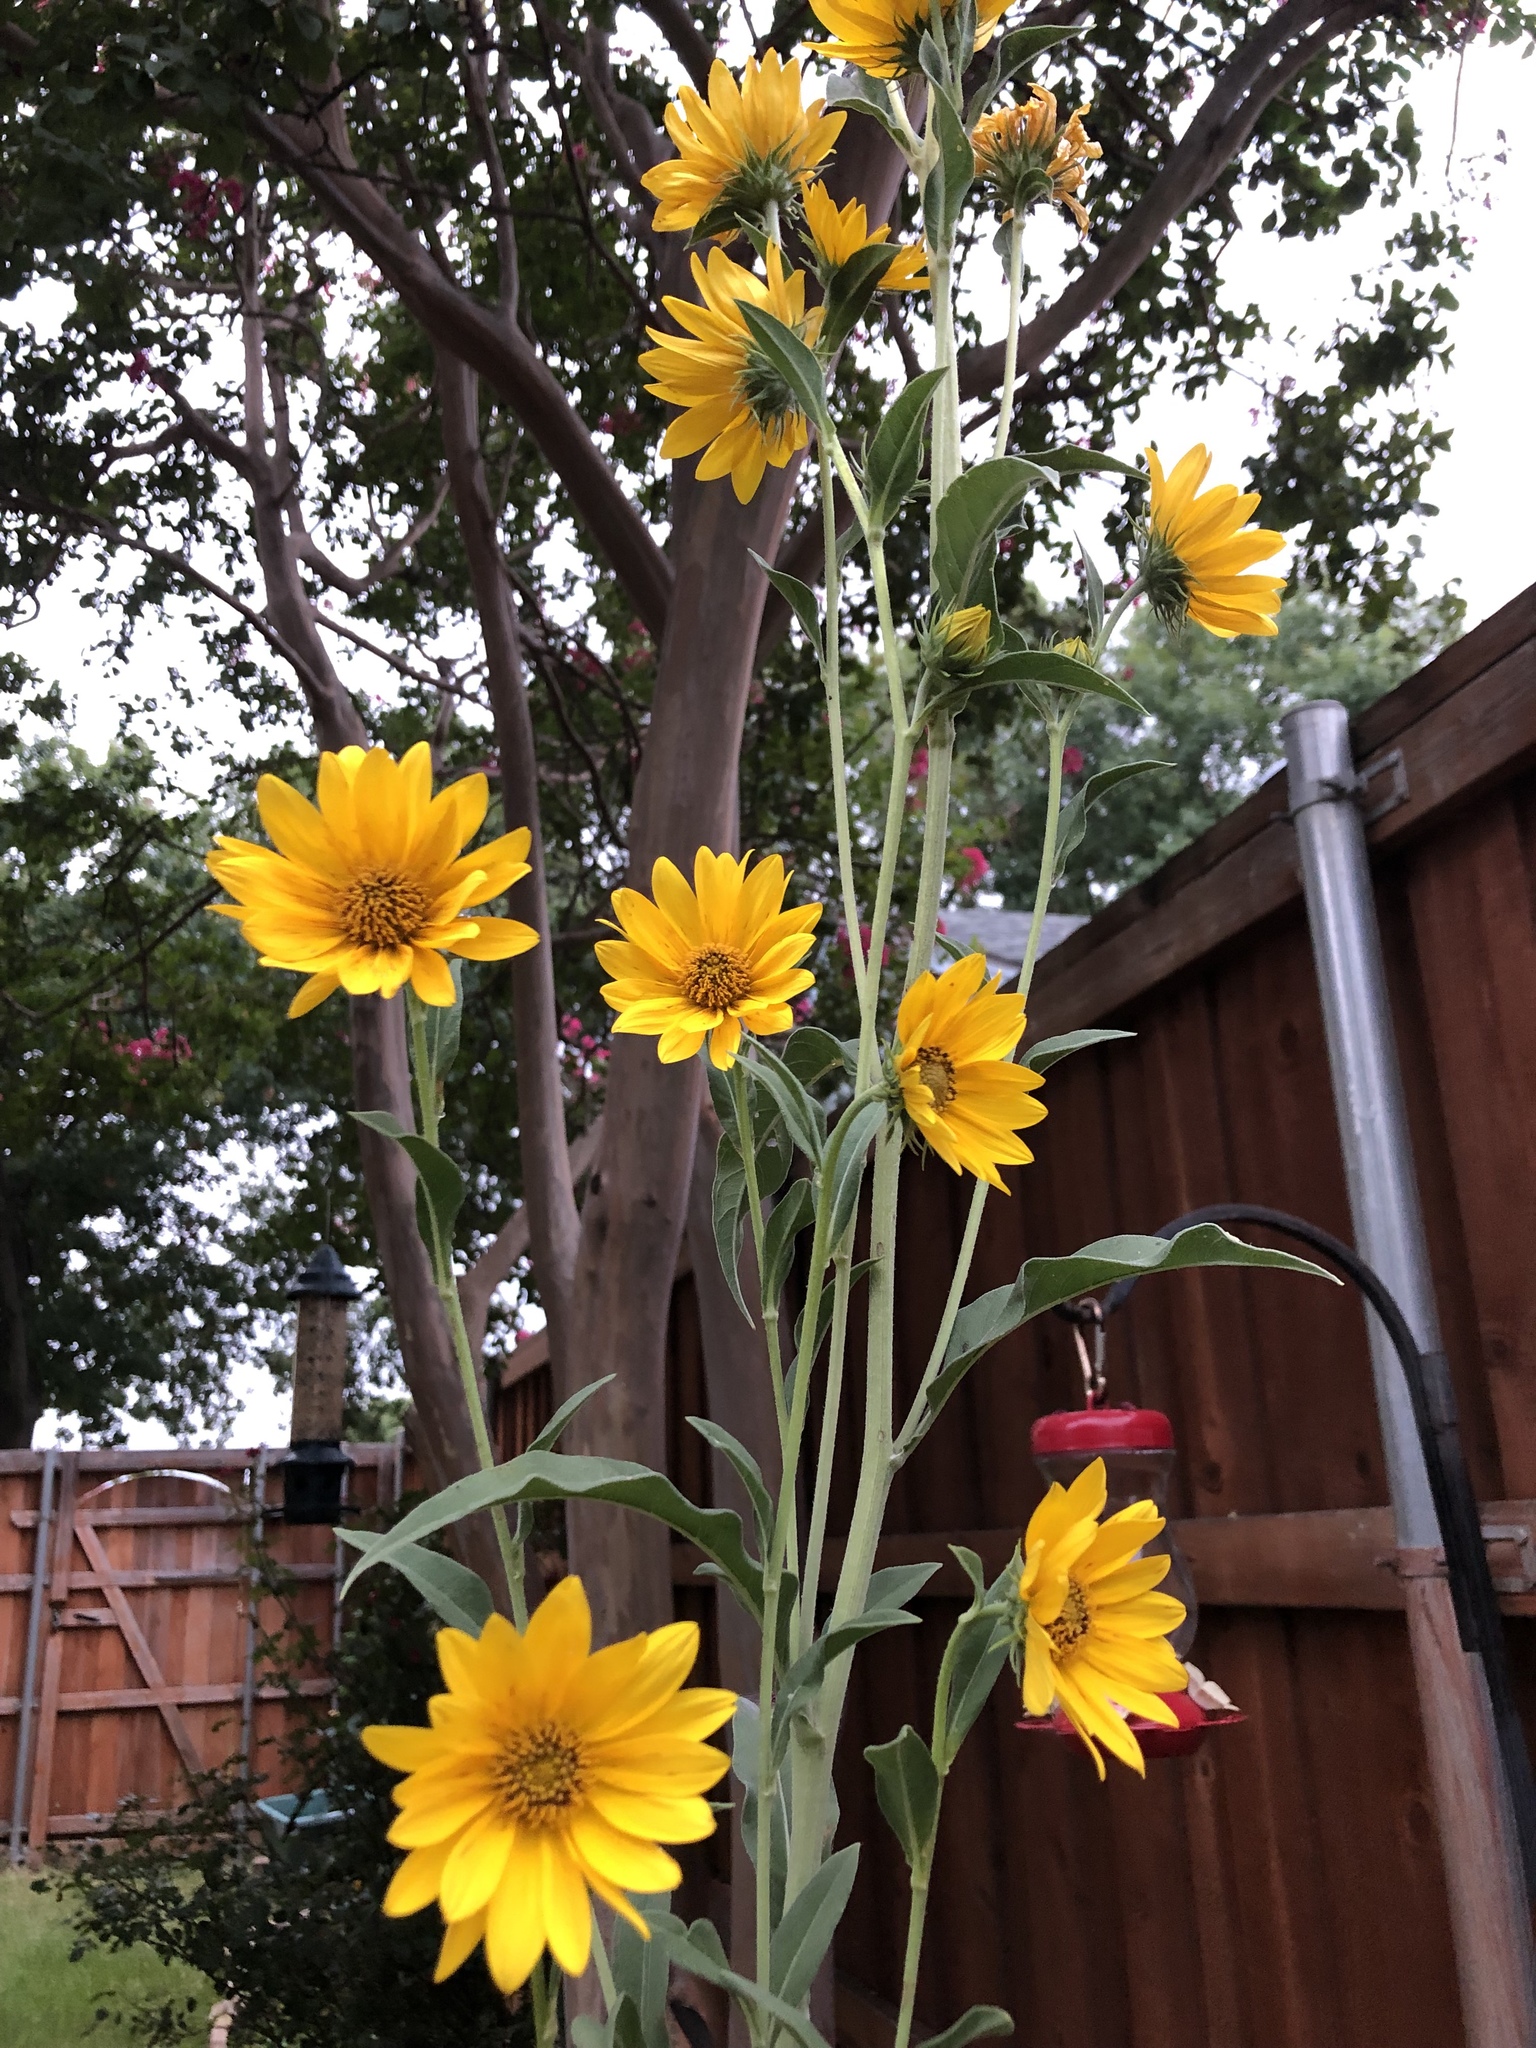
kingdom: Plantae
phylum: Tracheophyta
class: Magnoliopsida
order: Asterales
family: Asteraceae
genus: Helianthus
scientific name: Helianthus maximiliani
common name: Maximilian's sunflower
